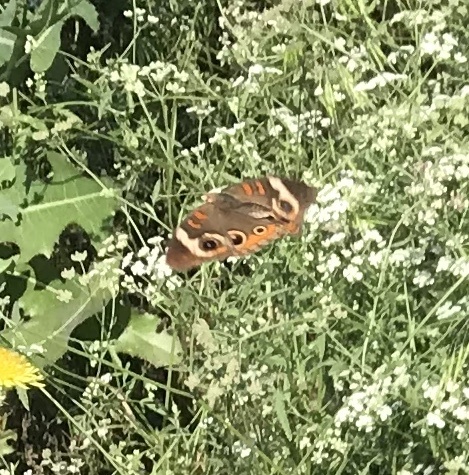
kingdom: Animalia
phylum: Arthropoda
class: Insecta
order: Lepidoptera
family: Nymphalidae
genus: Junonia
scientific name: Junonia coenia
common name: Common buckeye
